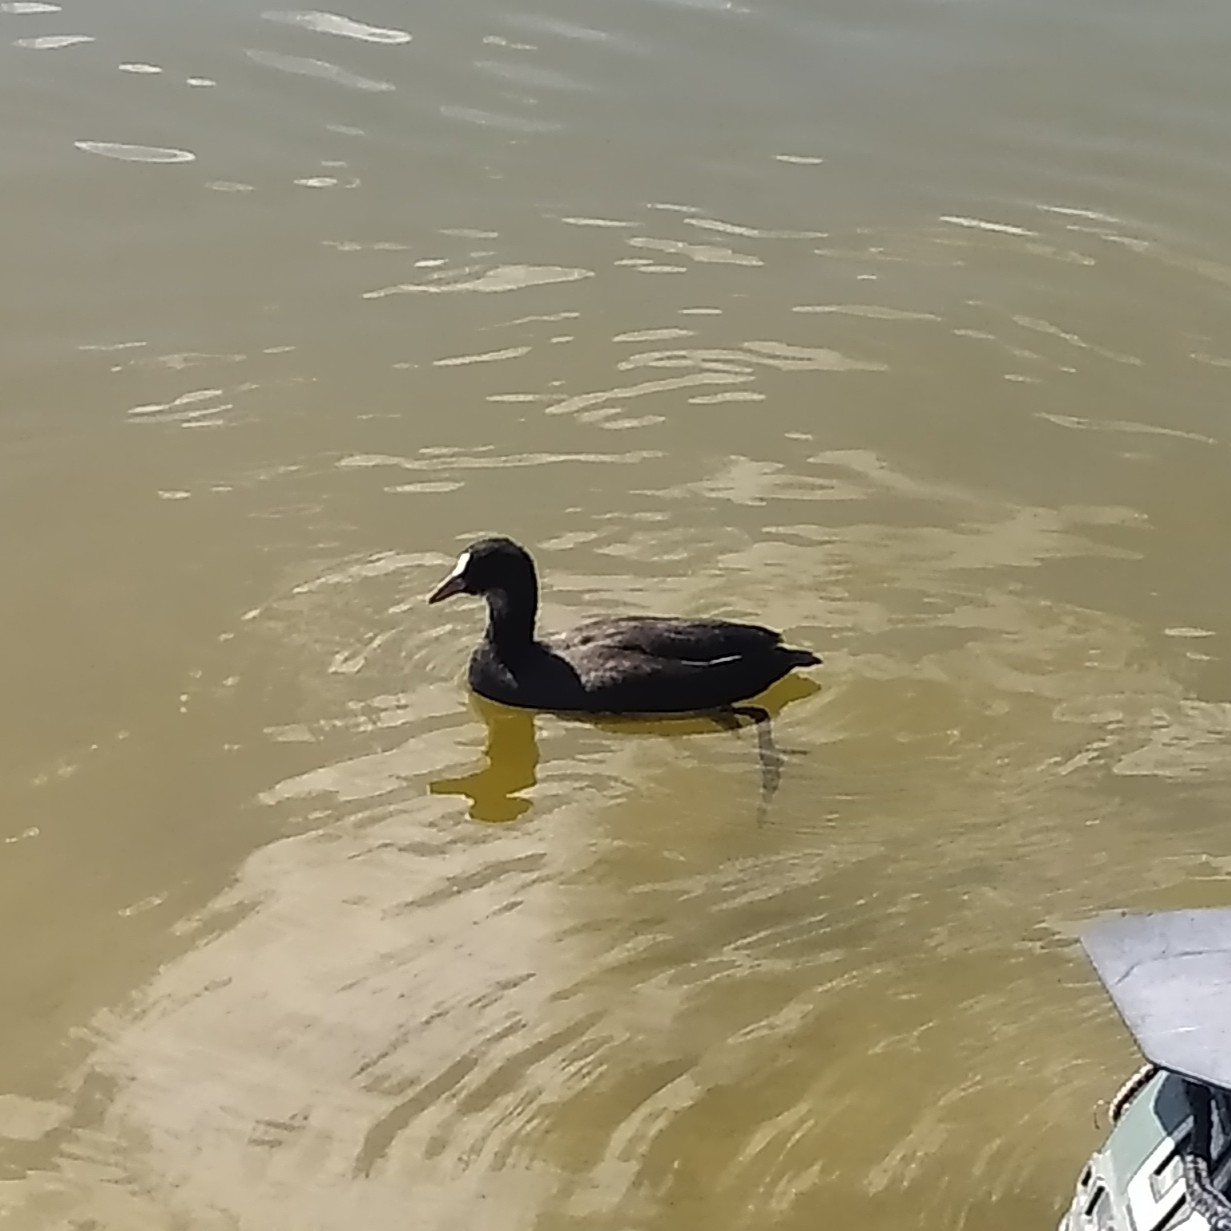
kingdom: Animalia
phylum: Chordata
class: Aves
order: Gruiformes
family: Rallidae
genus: Fulica
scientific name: Fulica atra
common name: Eurasian coot
